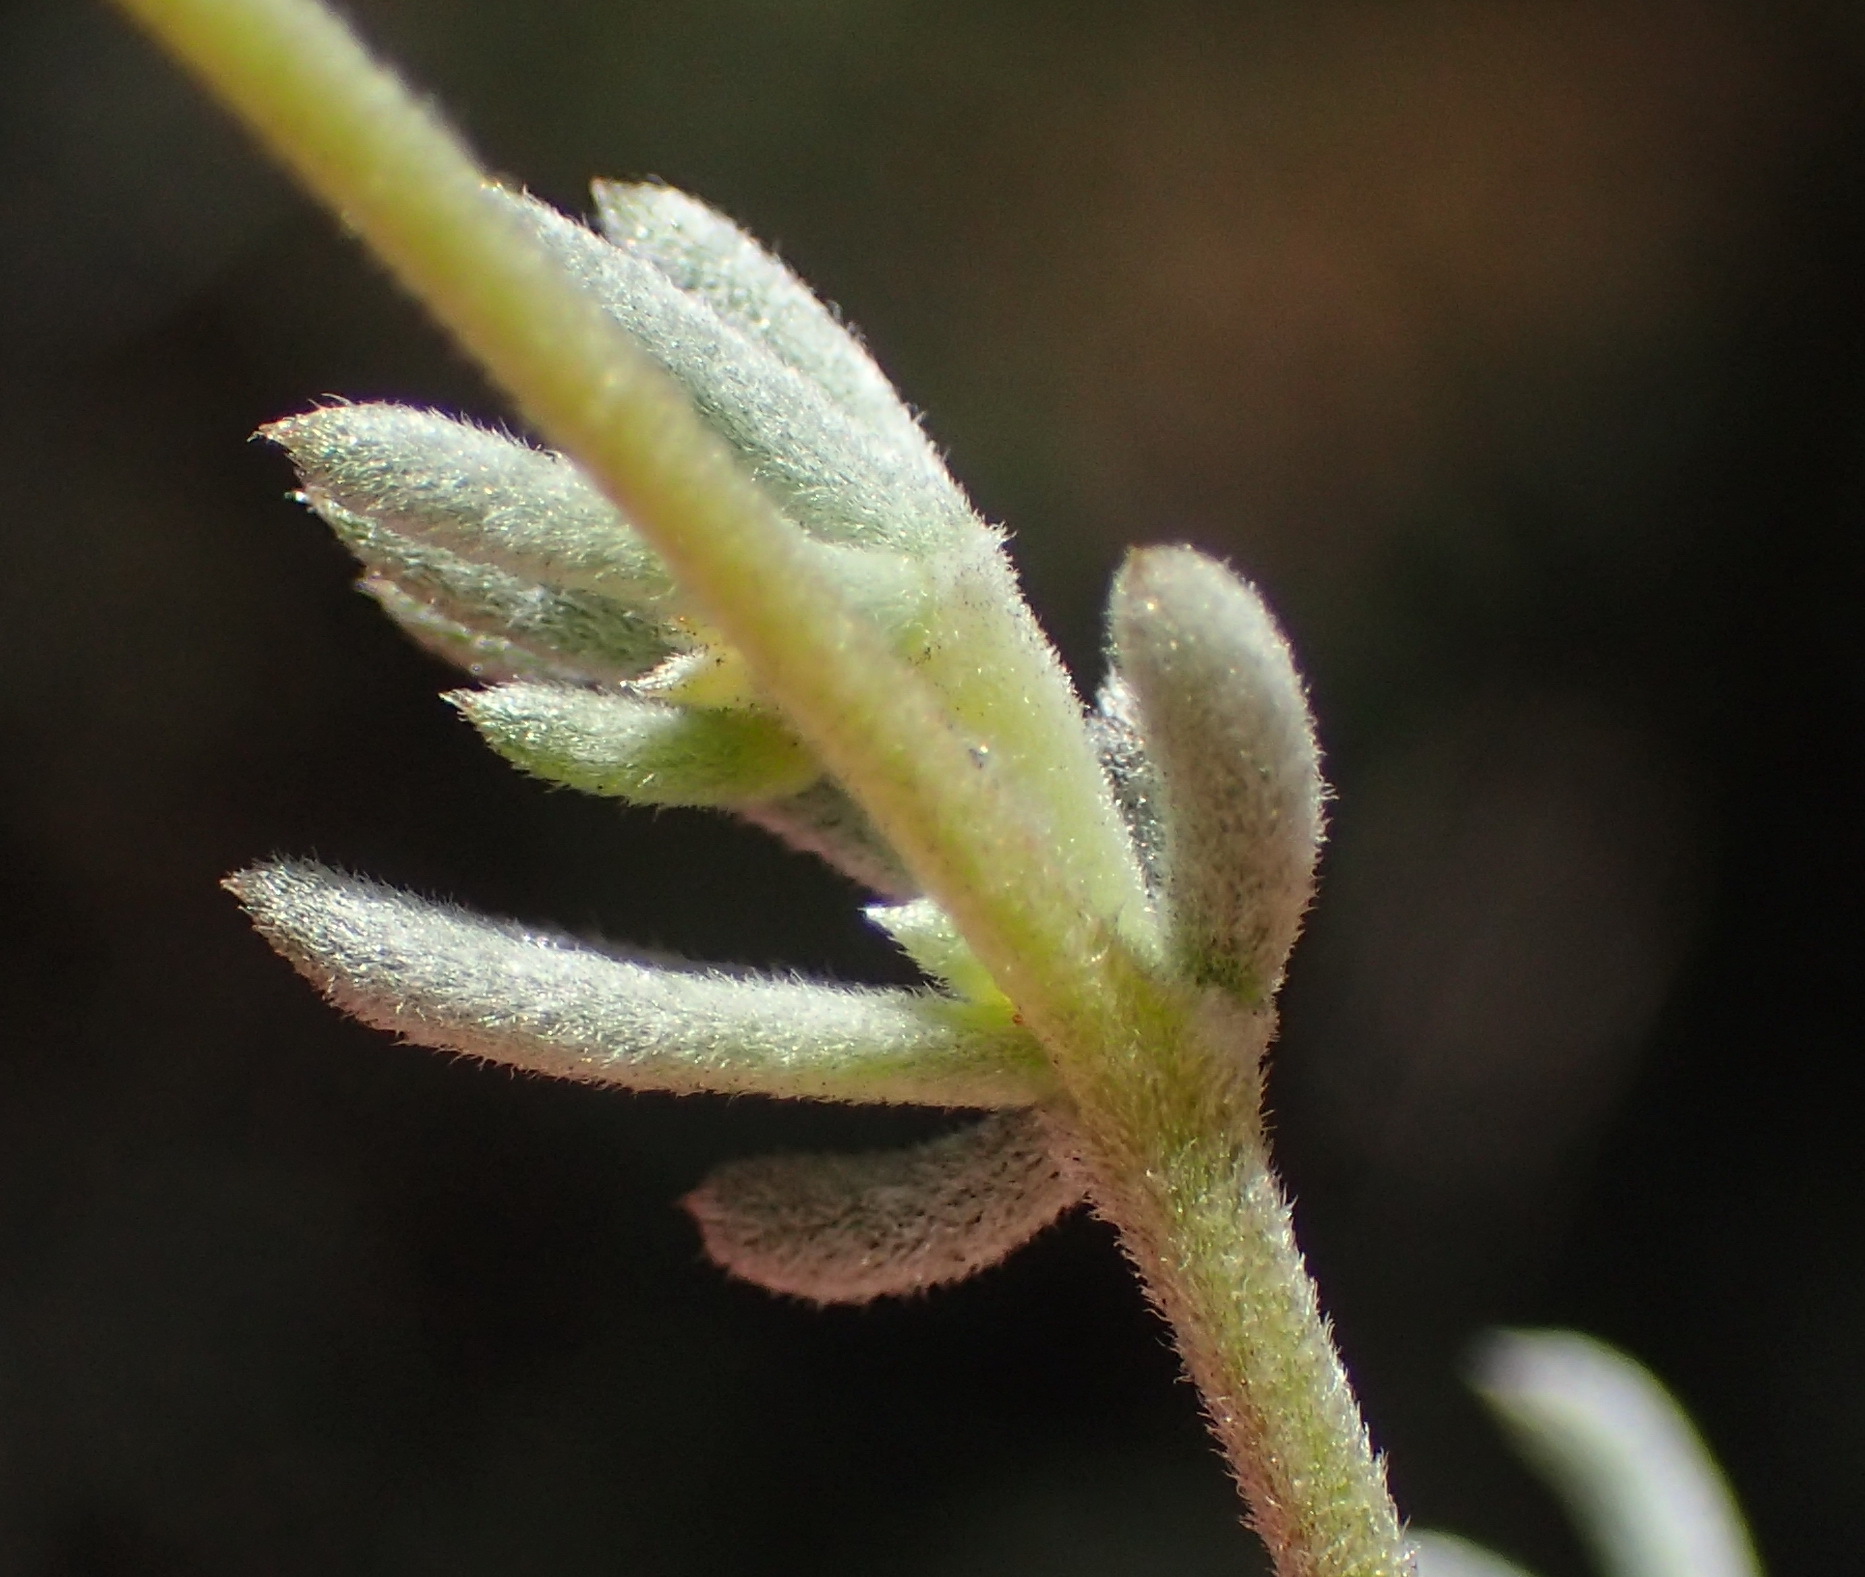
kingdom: Plantae
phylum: Tracheophyta
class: Magnoliopsida
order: Fabales
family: Fabaceae
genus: Aspalathus
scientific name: Aspalathus digitifolia
